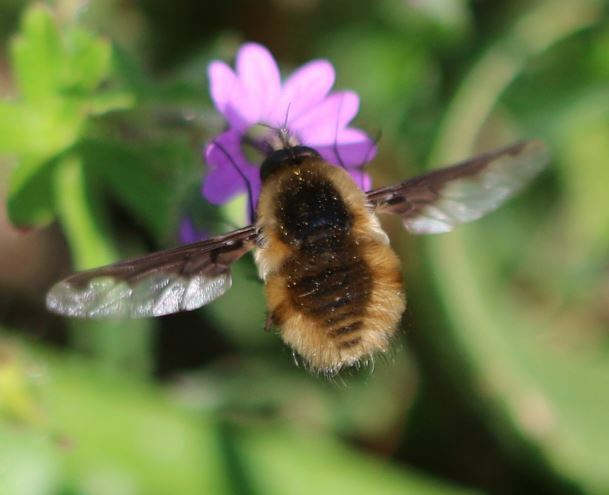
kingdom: Animalia
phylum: Arthropoda
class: Insecta
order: Diptera
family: Bombyliidae
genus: Bombylius
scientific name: Bombylius major
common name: Bee fly
